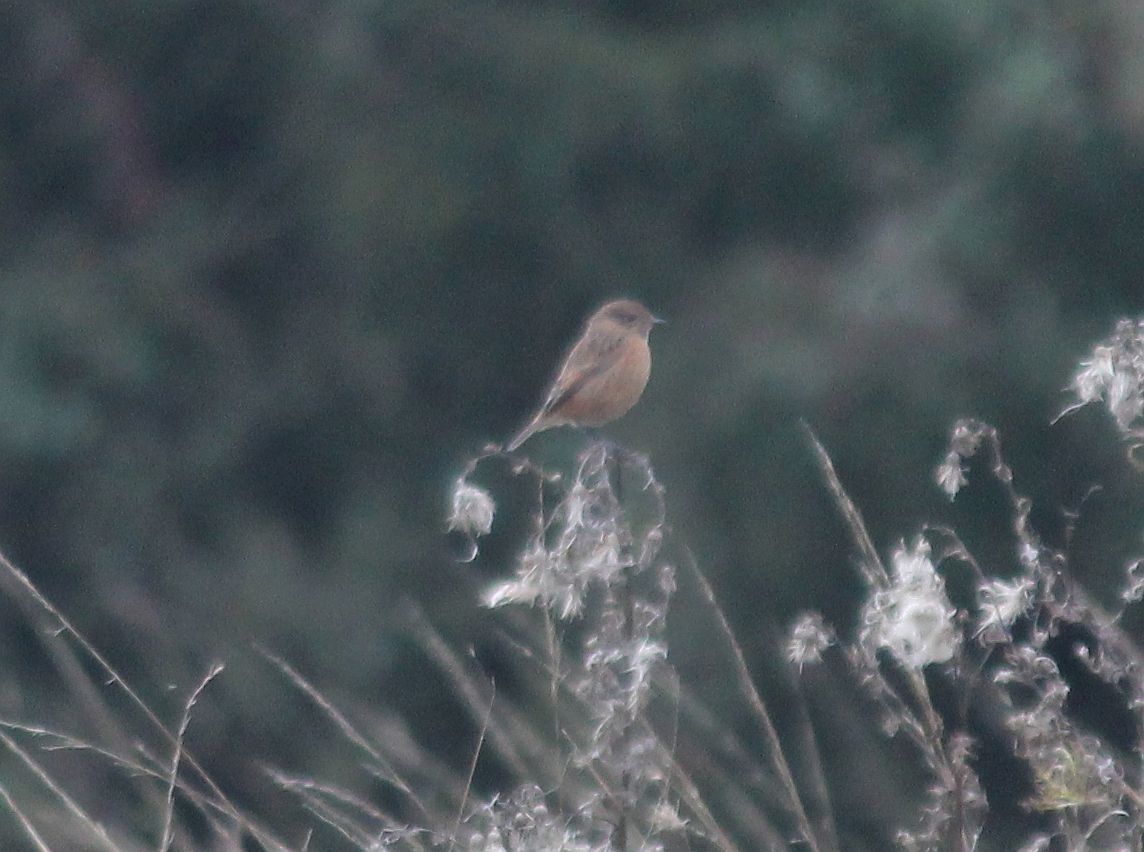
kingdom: Animalia
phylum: Chordata
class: Aves
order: Passeriformes
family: Muscicapidae
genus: Saxicola
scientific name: Saxicola rubicola
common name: European stonechat
